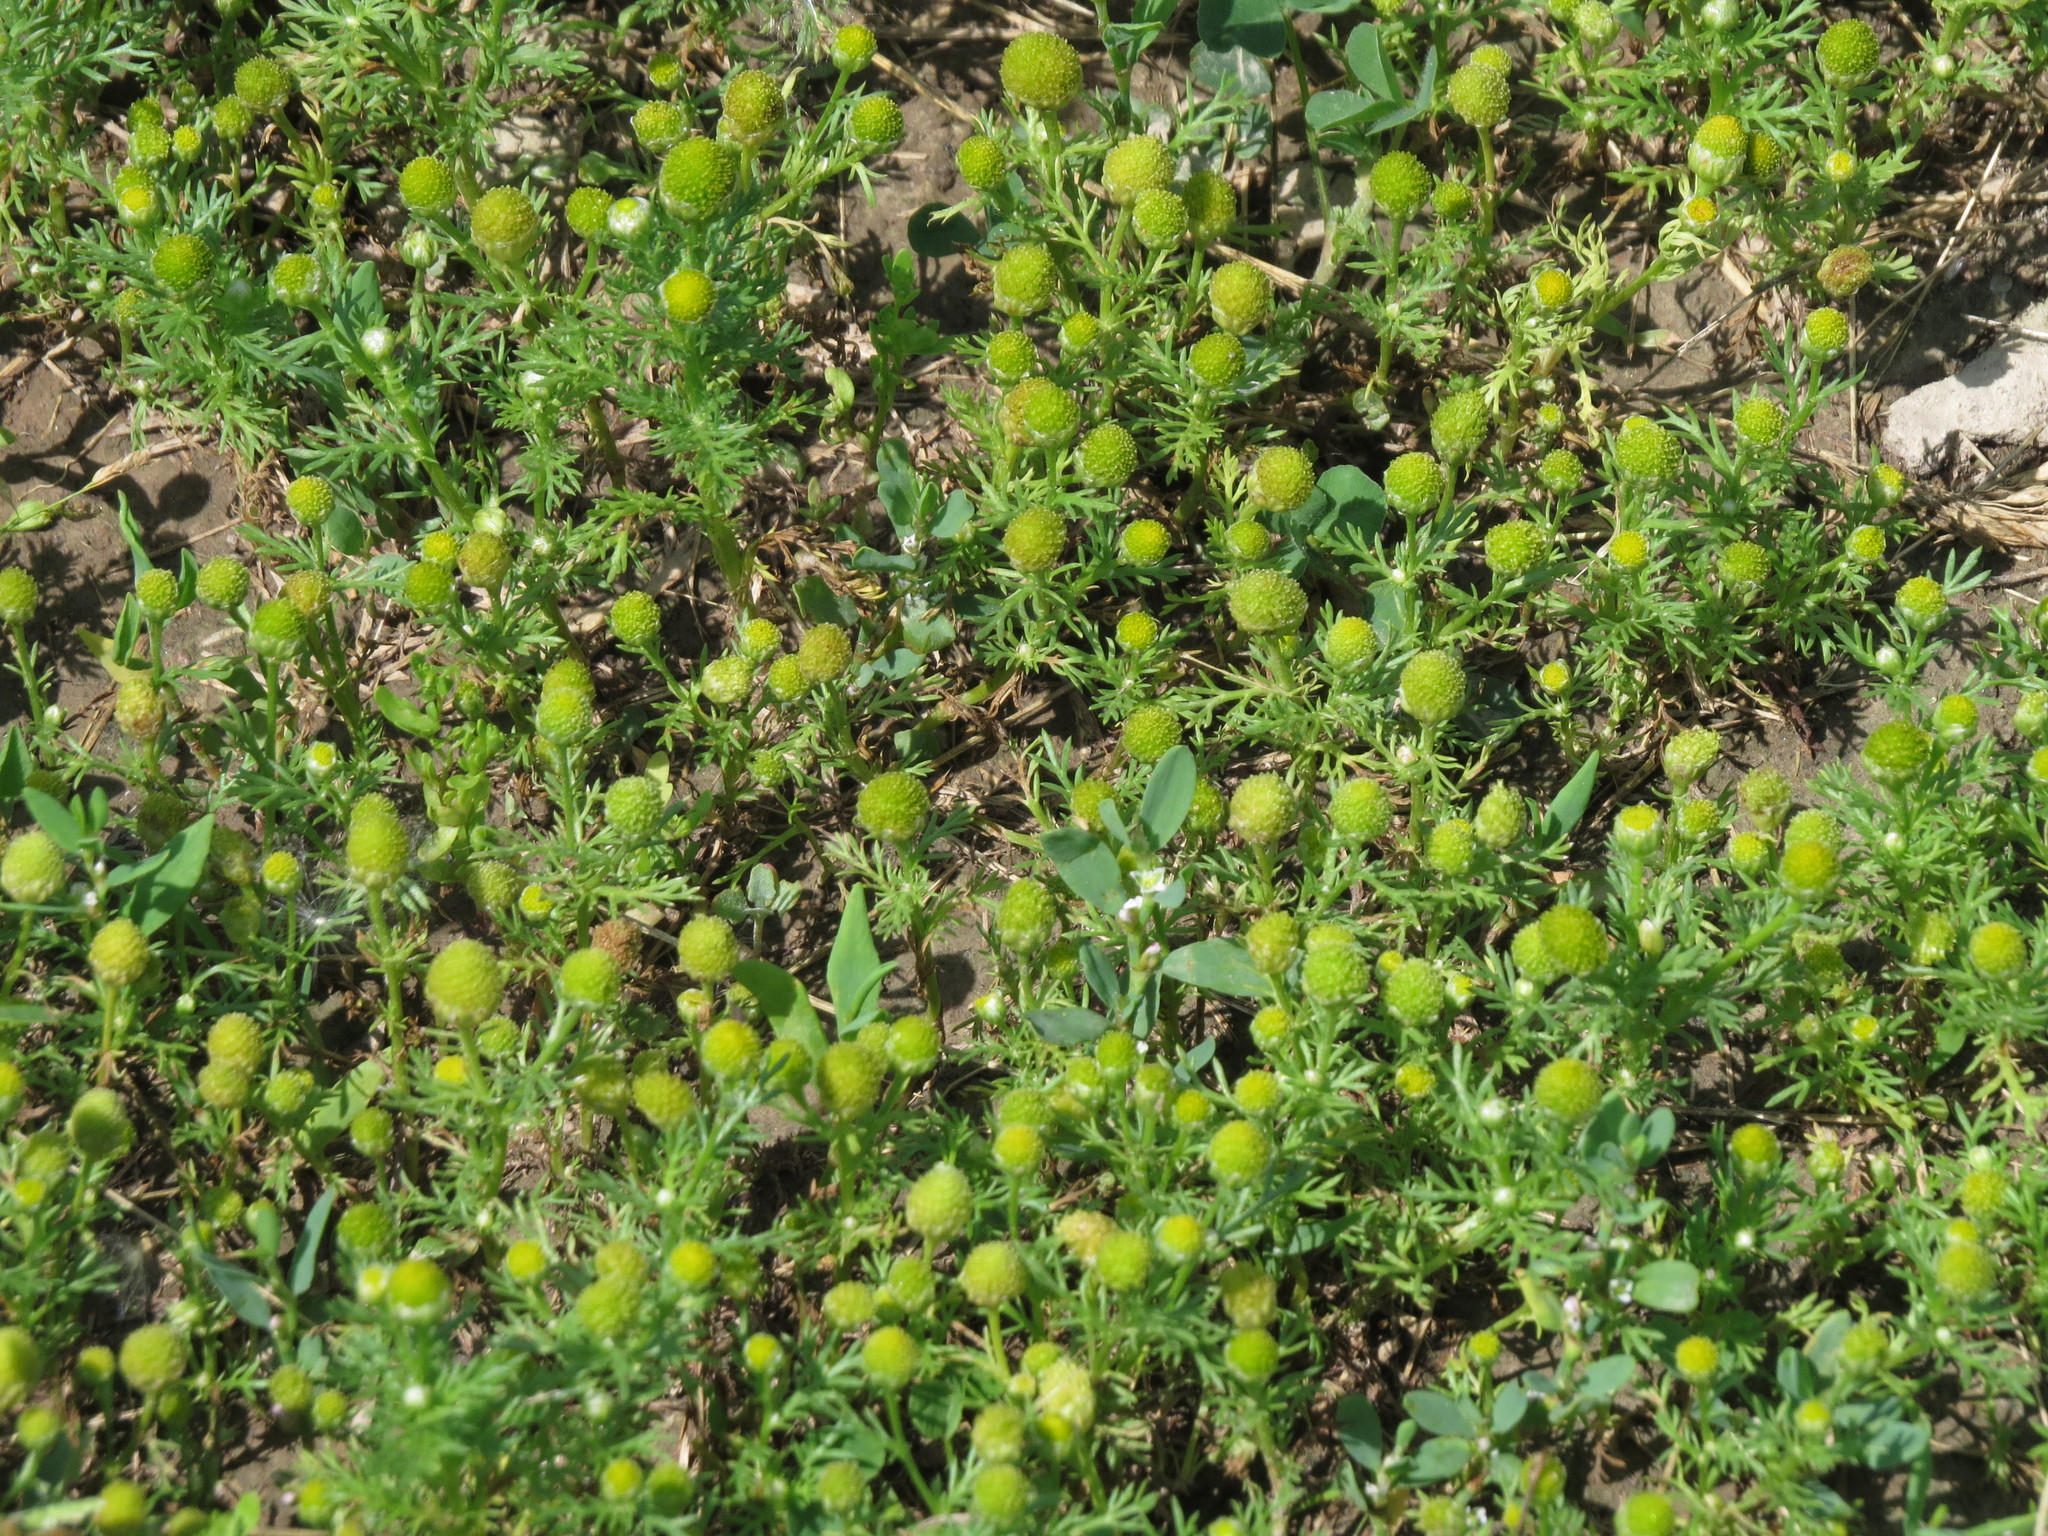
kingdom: Plantae
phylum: Tracheophyta
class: Magnoliopsida
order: Asterales
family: Asteraceae
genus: Matricaria
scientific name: Matricaria discoidea
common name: Disc mayweed
